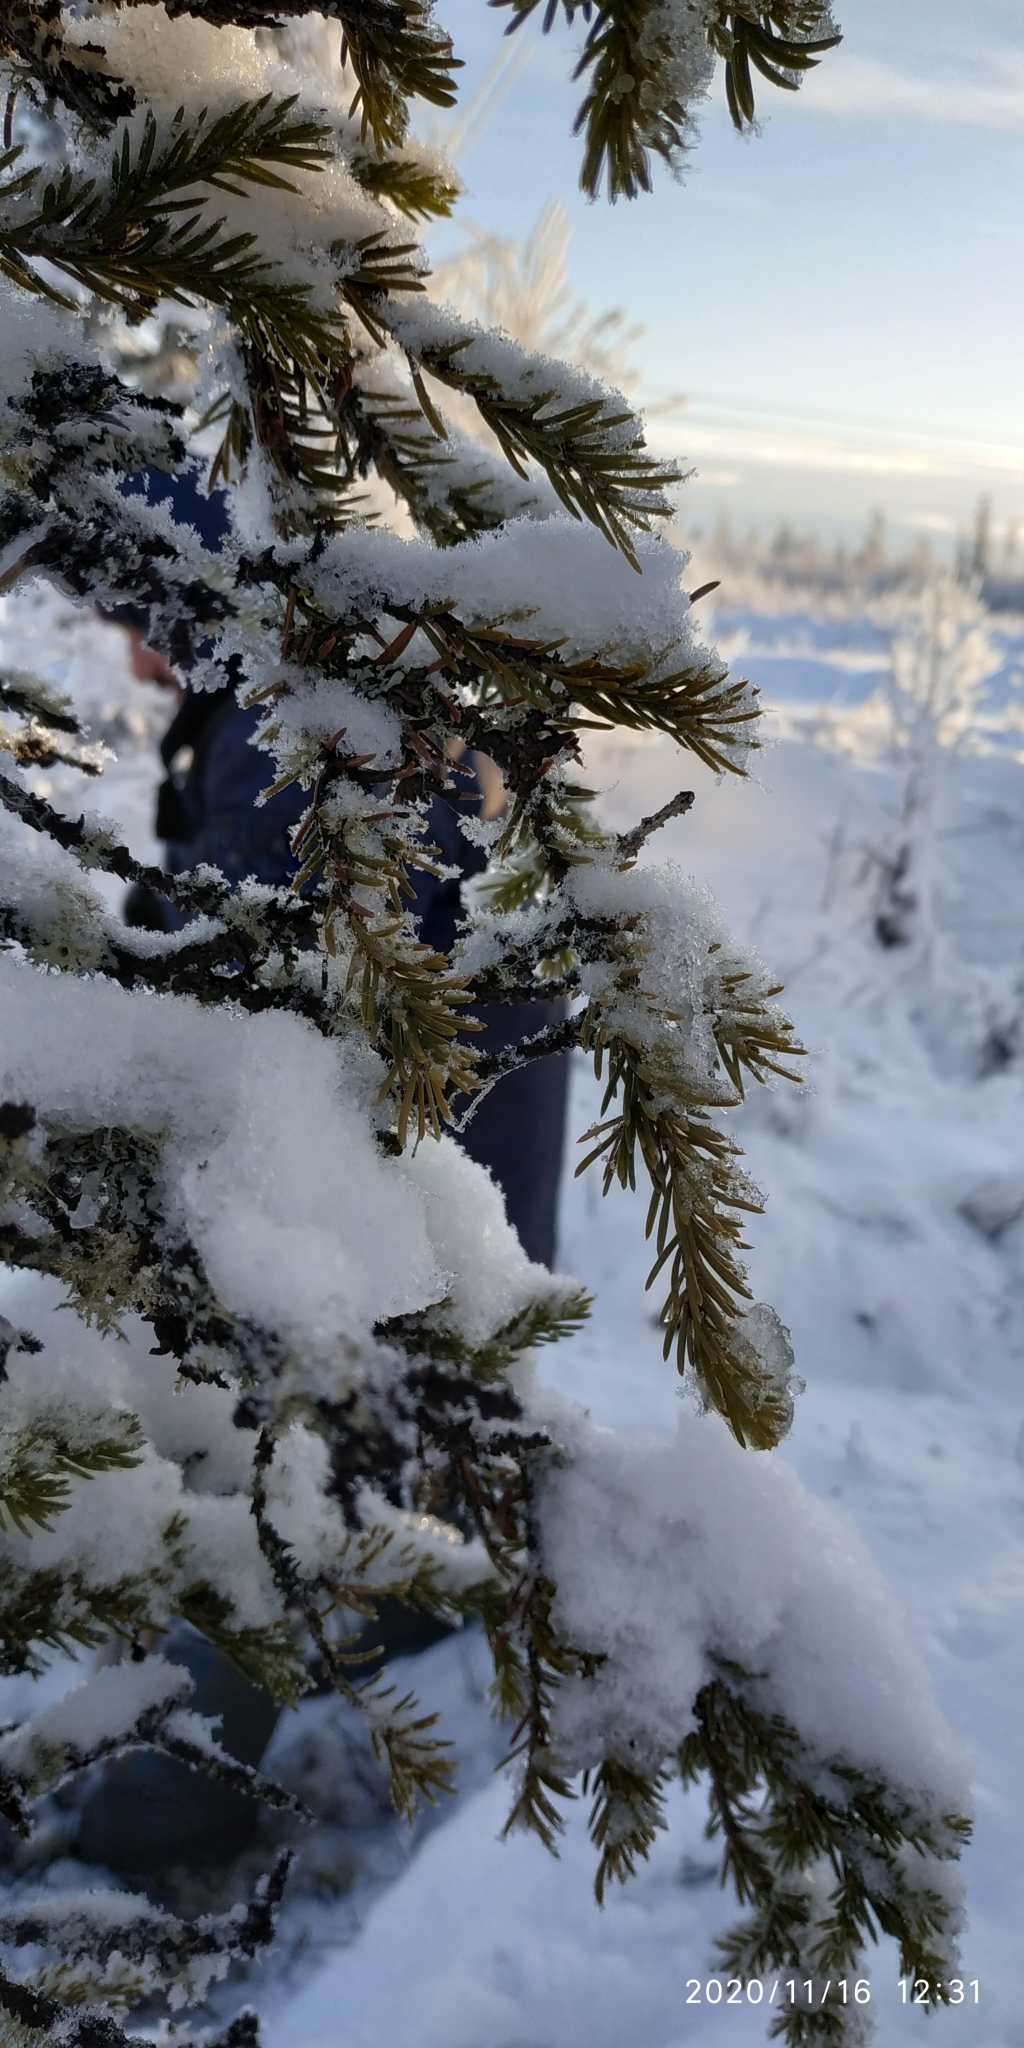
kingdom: Plantae
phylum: Tracheophyta
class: Pinopsida
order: Pinales
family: Pinaceae
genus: Picea
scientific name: Picea obovata
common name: Siberian spruce
